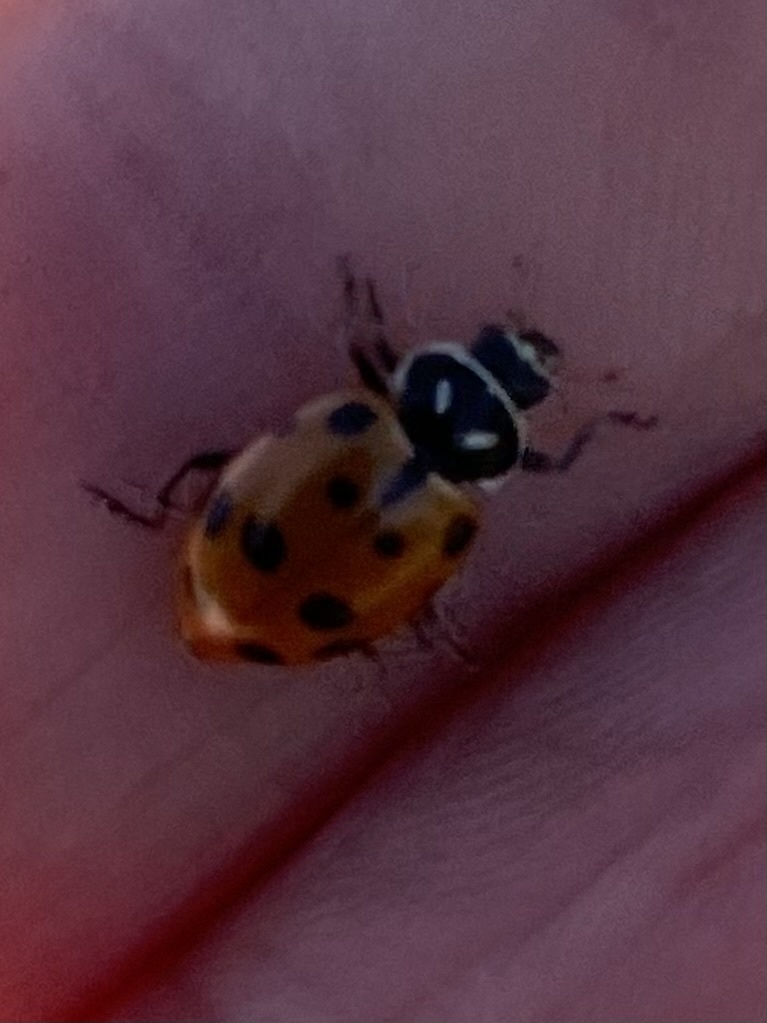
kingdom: Animalia
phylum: Arthropoda
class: Insecta
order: Coleoptera
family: Coccinellidae
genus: Hippodamia
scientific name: Hippodamia convergens
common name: Convergent lady beetle
